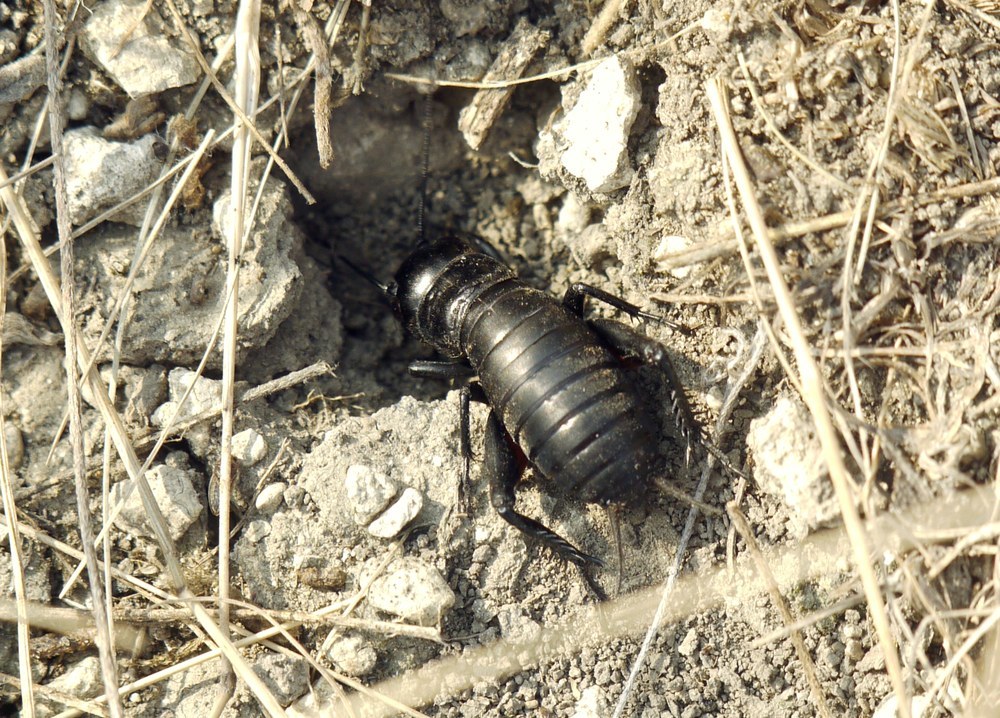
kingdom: Animalia
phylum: Arthropoda
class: Insecta
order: Orthoptera
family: Gryllidae
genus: Gryllus
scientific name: Gryllus campestris
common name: Field cricket
